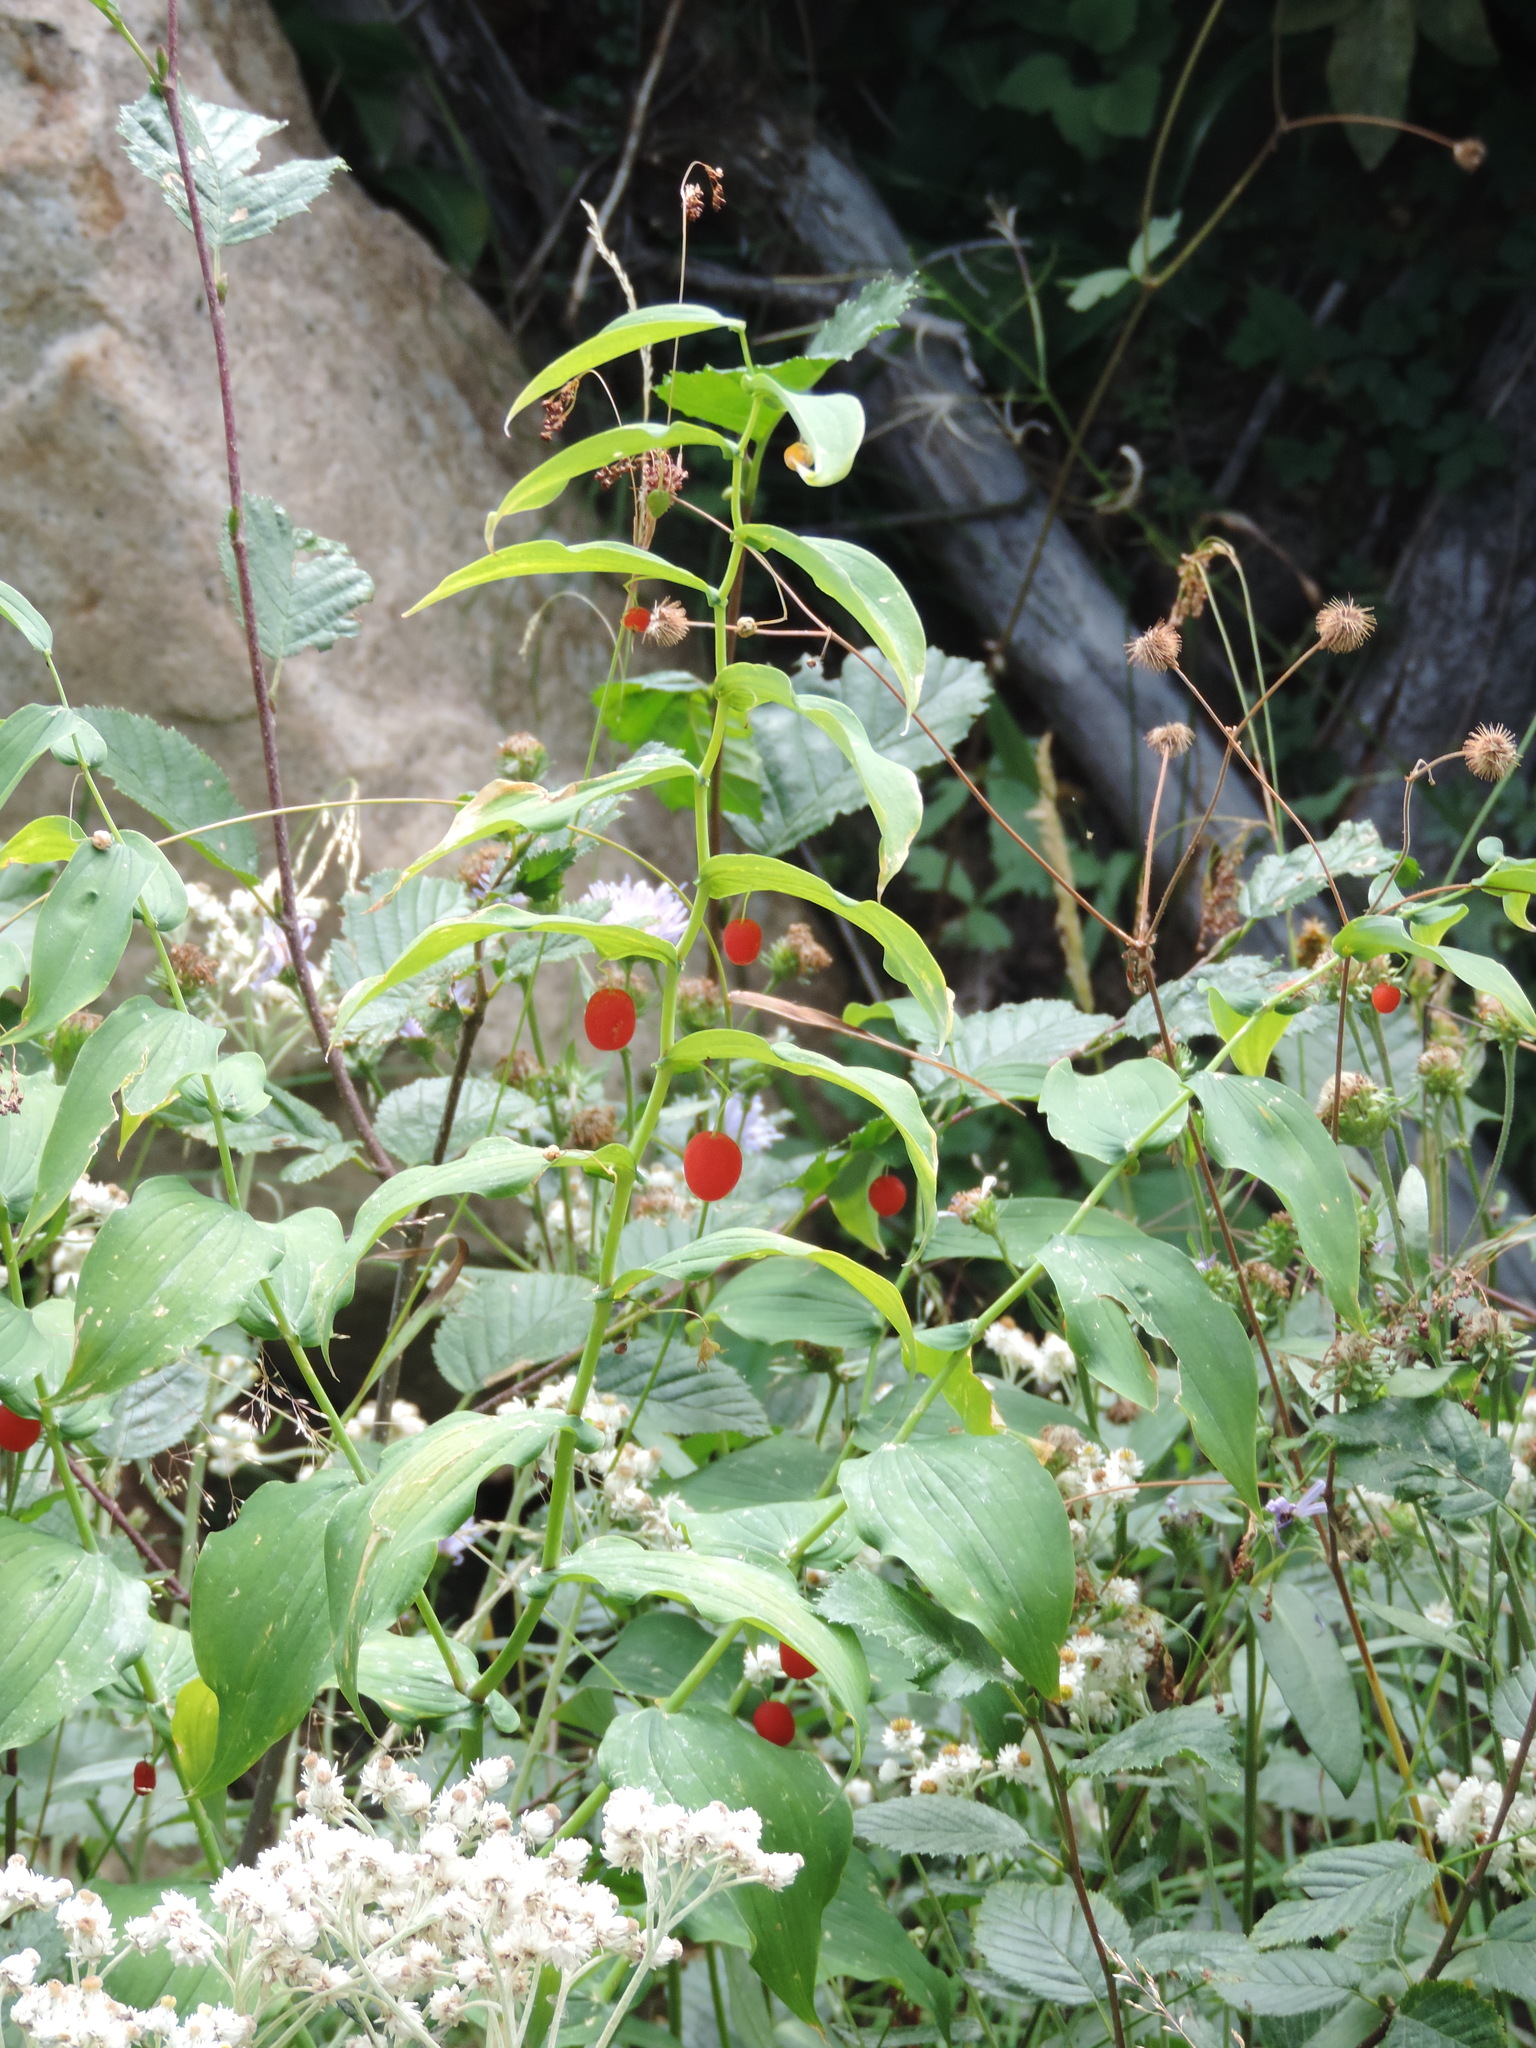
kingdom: Plantae
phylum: Tracheophyta
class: Liliopsida
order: Liliales
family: Liliaceae
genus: Streptopus
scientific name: Streptopus amplexifolius
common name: Clasp twisted stalk
